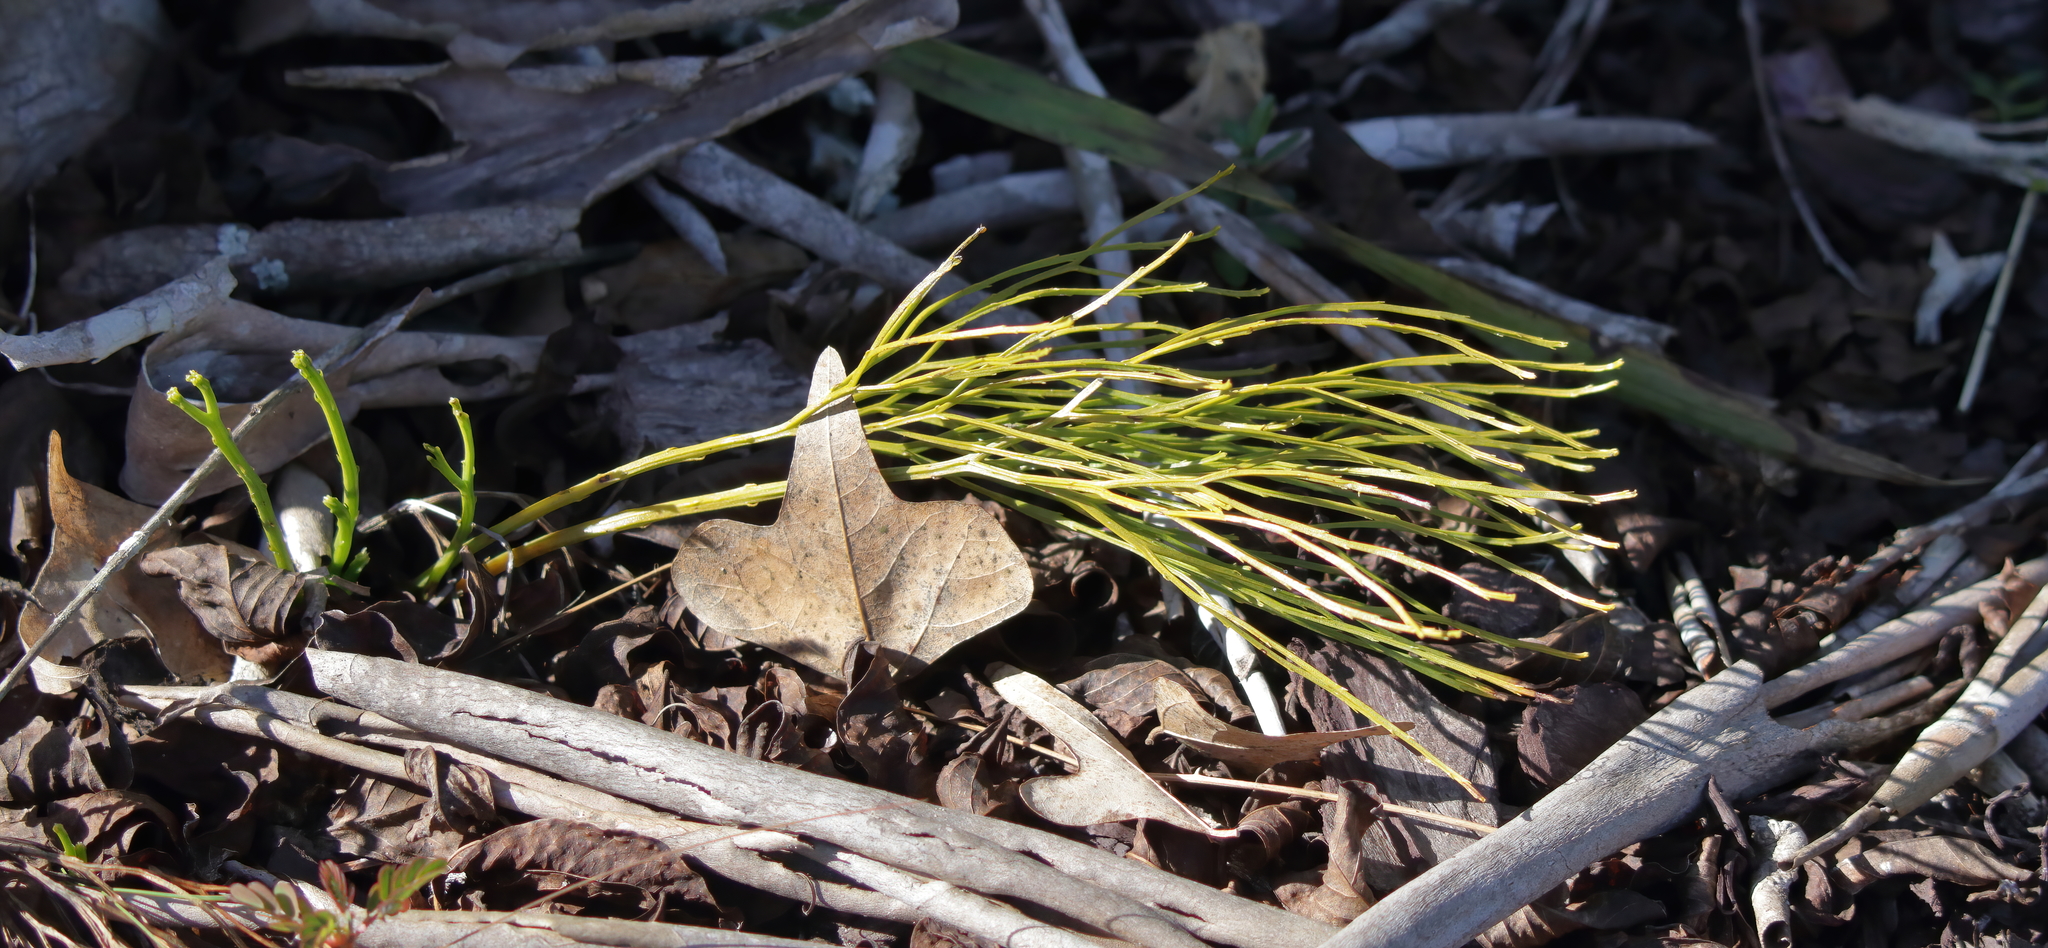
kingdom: Plantae
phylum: Tracheophyta
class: Polypodiopsida
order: Psilotales
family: Psilotaceae
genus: Psilotum
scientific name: Psilotum nudum
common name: Skeleton fork fern
